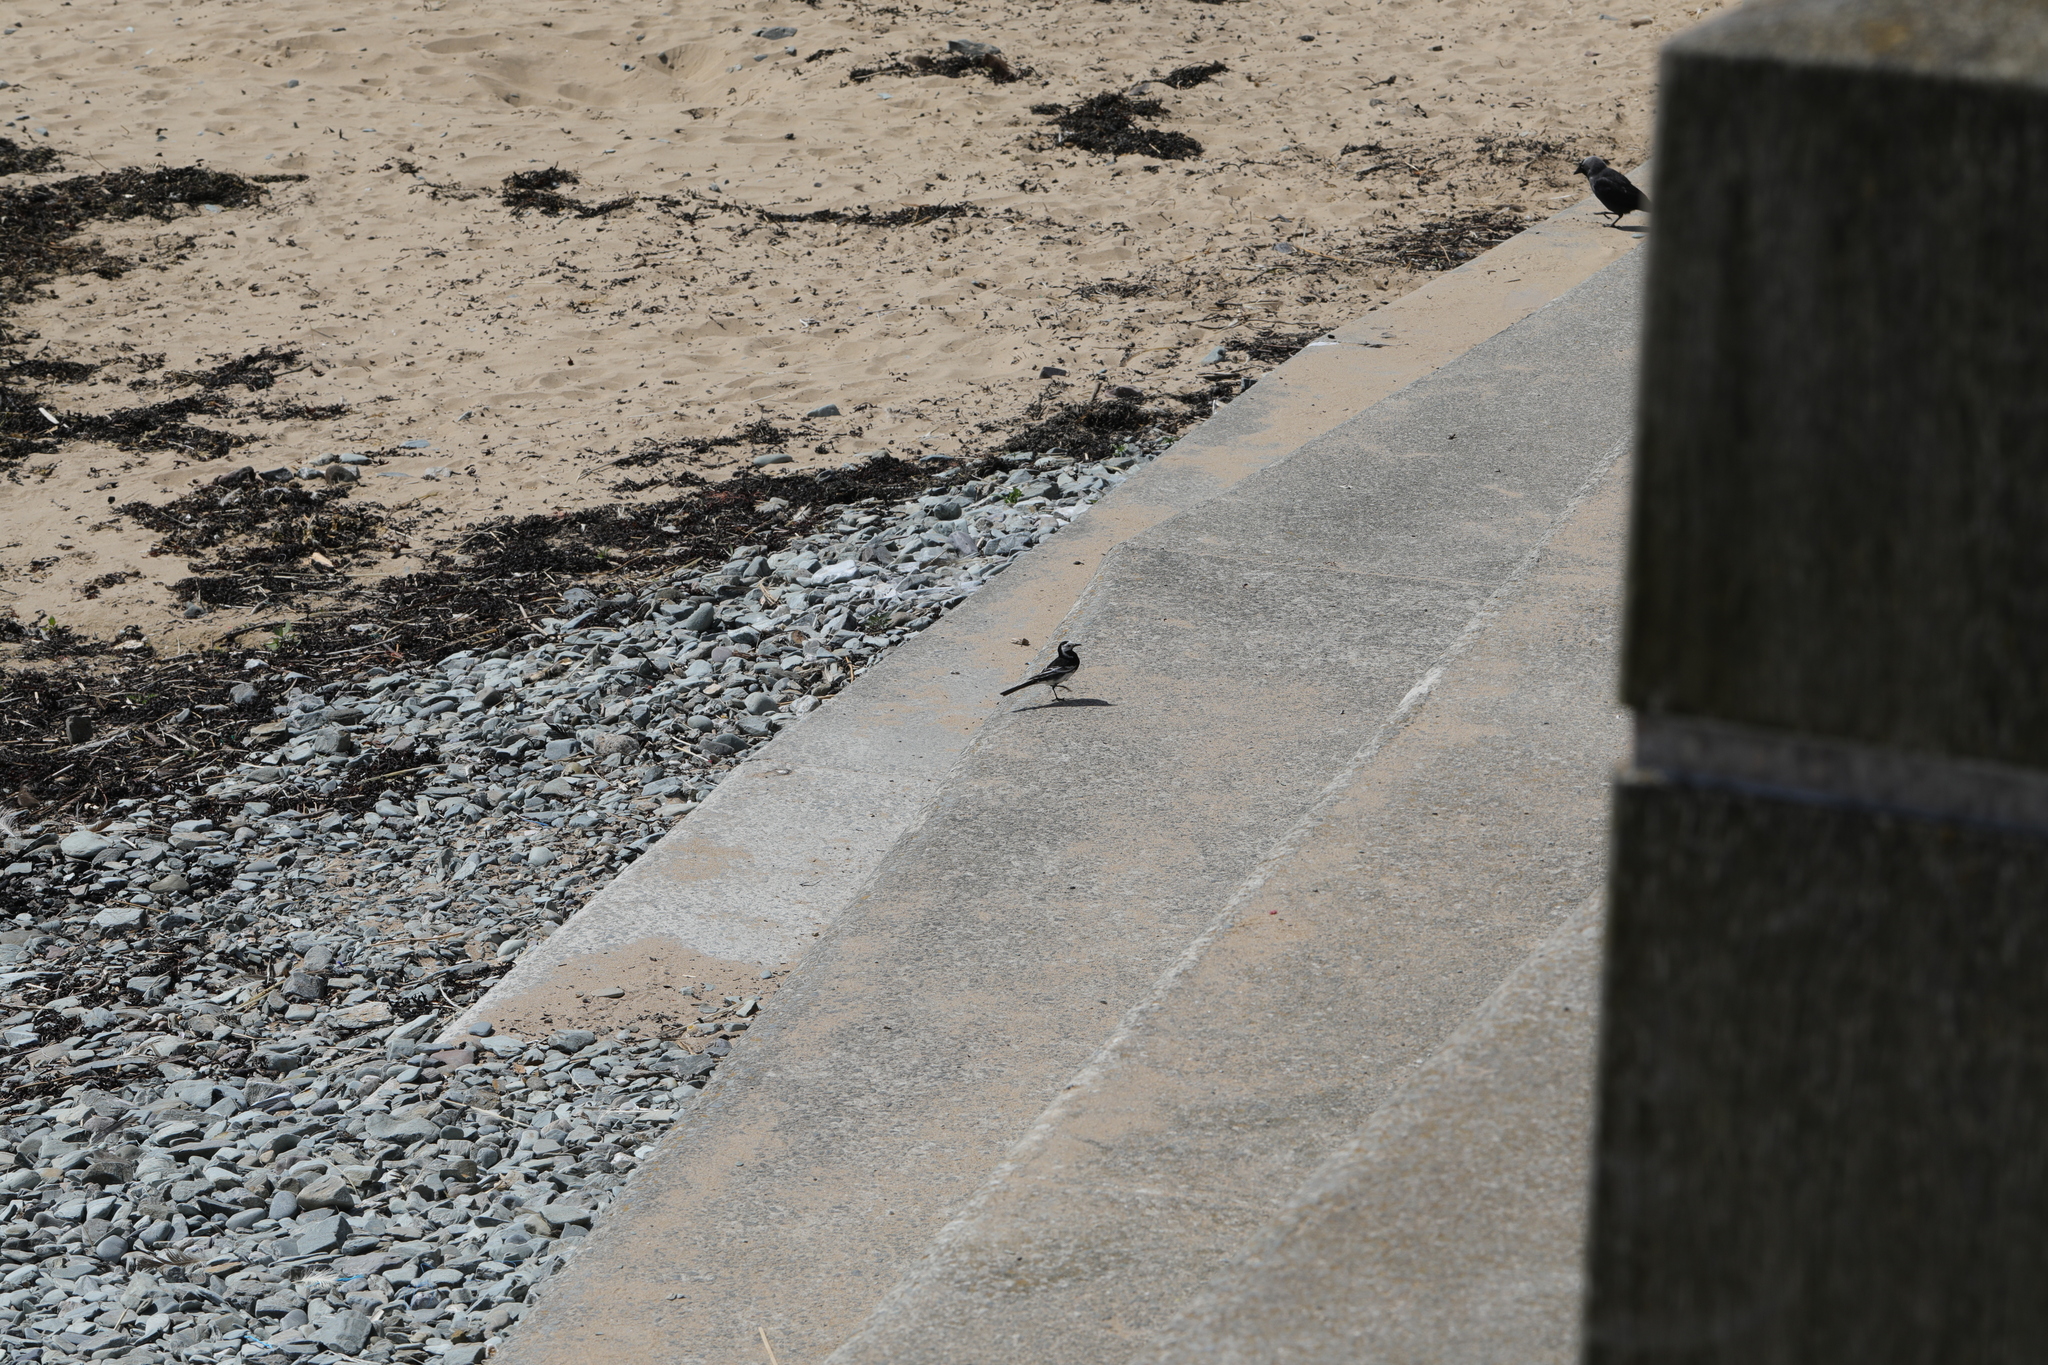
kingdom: Animalia
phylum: Chordata
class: Aves
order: Passeriformes
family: Motacillidae
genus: Motacilla
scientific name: Motacilla alba
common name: White wagtail
